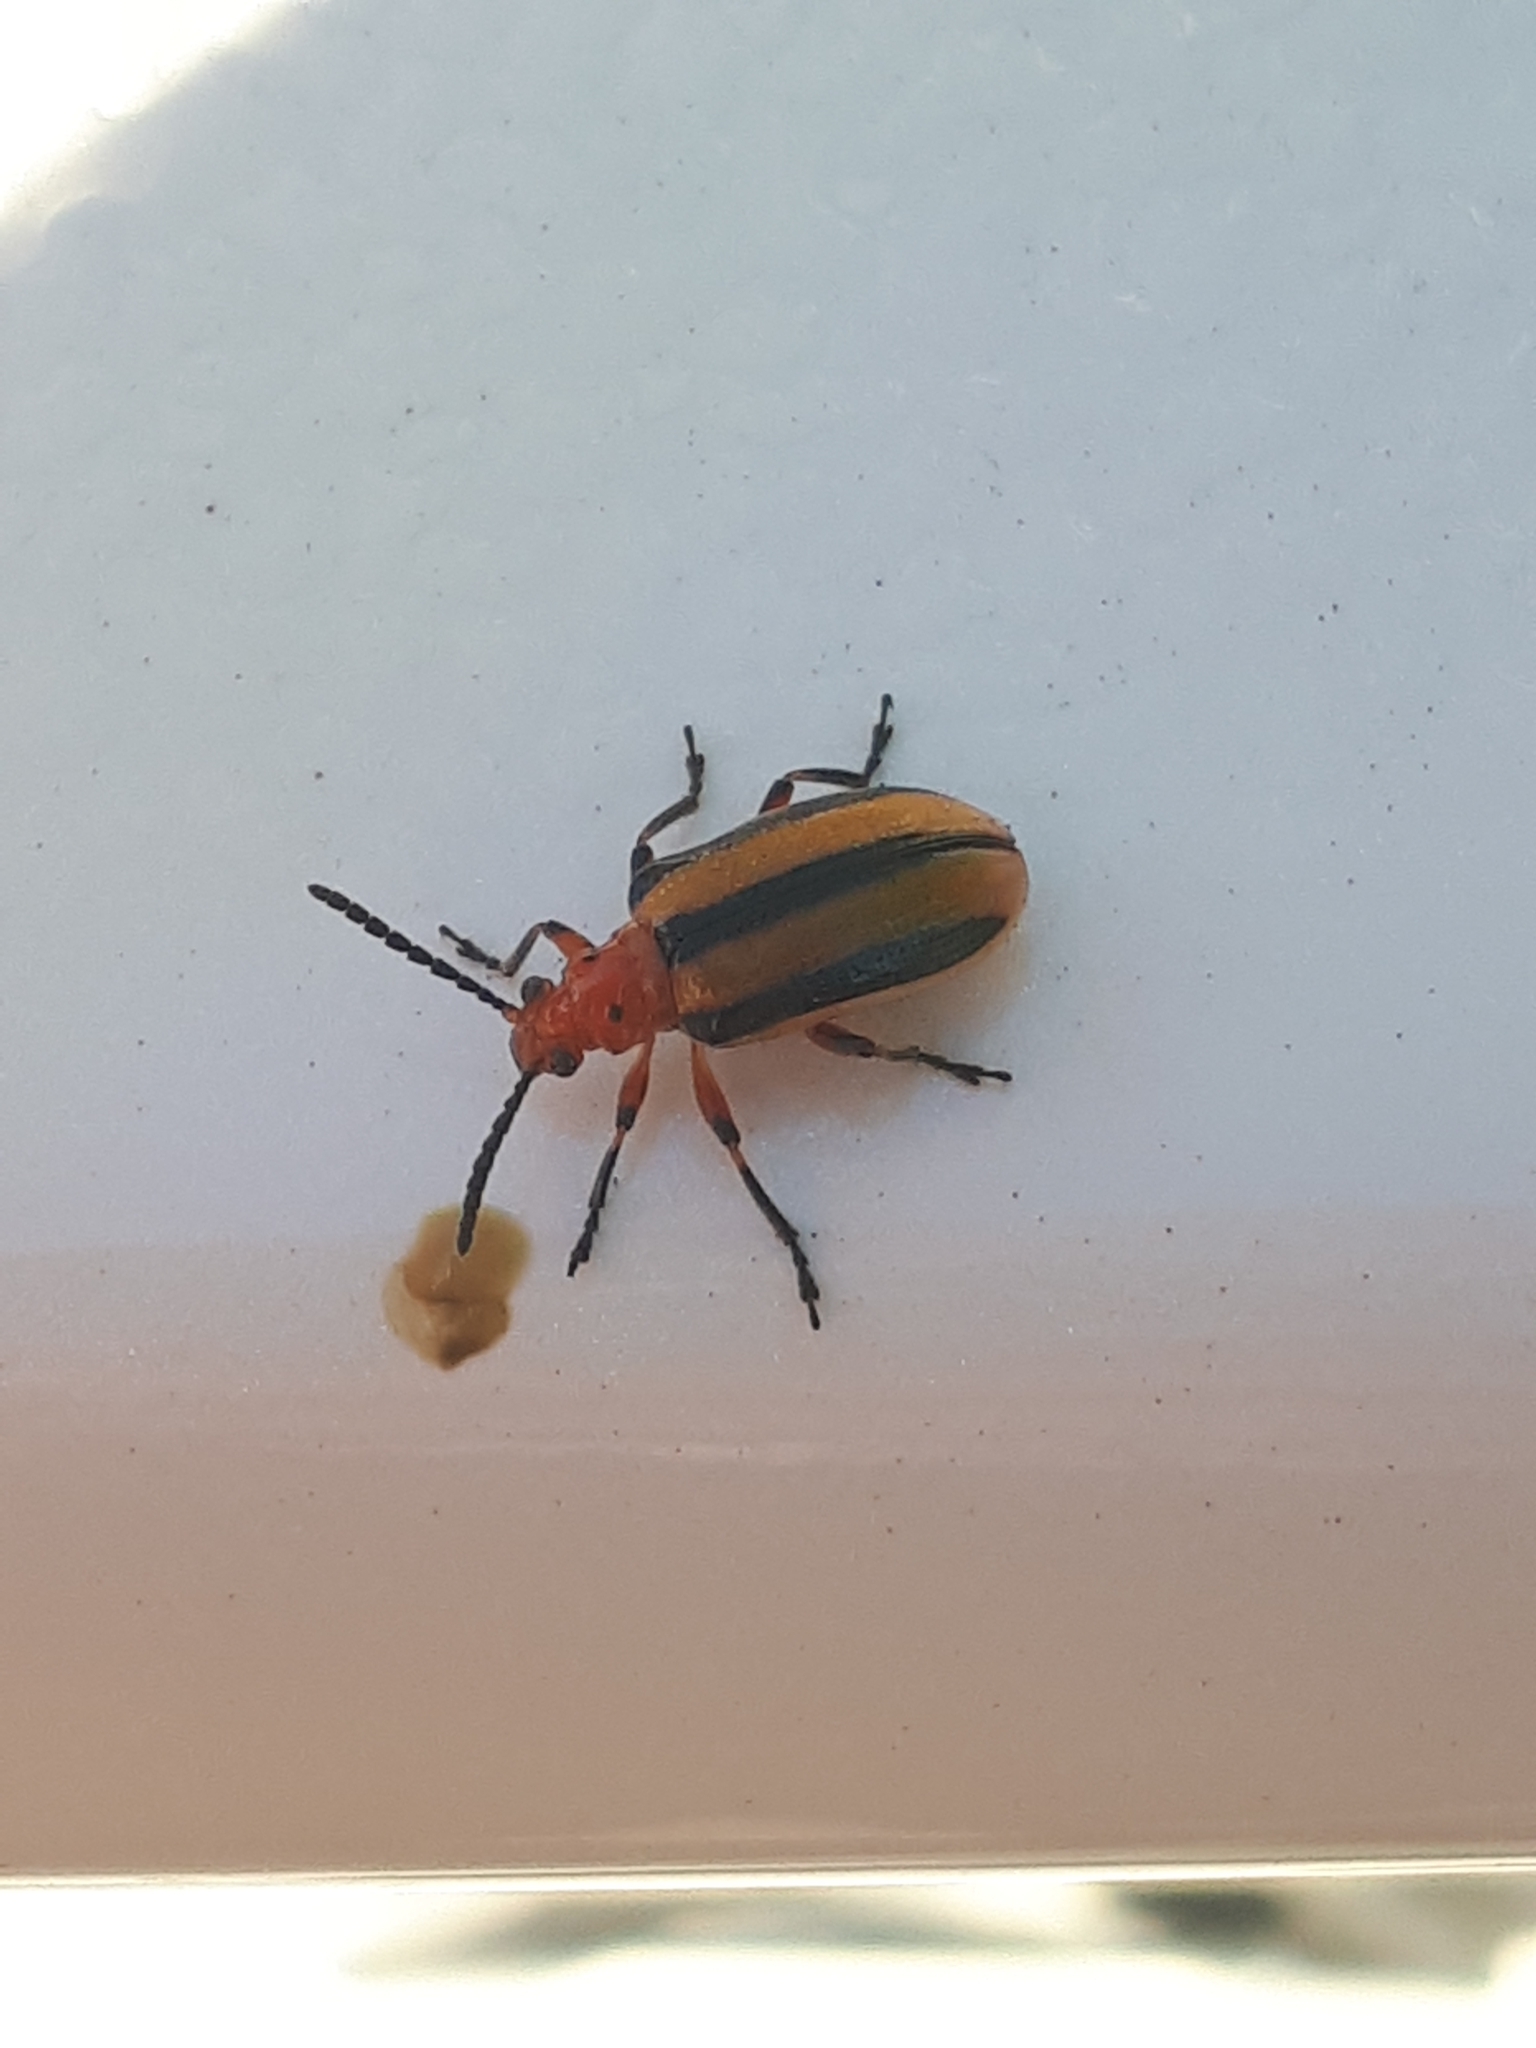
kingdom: Animalia
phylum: Arthropoda
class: Insecta
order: Coleoptera
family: Chrysomelidae
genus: Lema
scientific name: Lema daturaphila
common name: Leaf beetle
